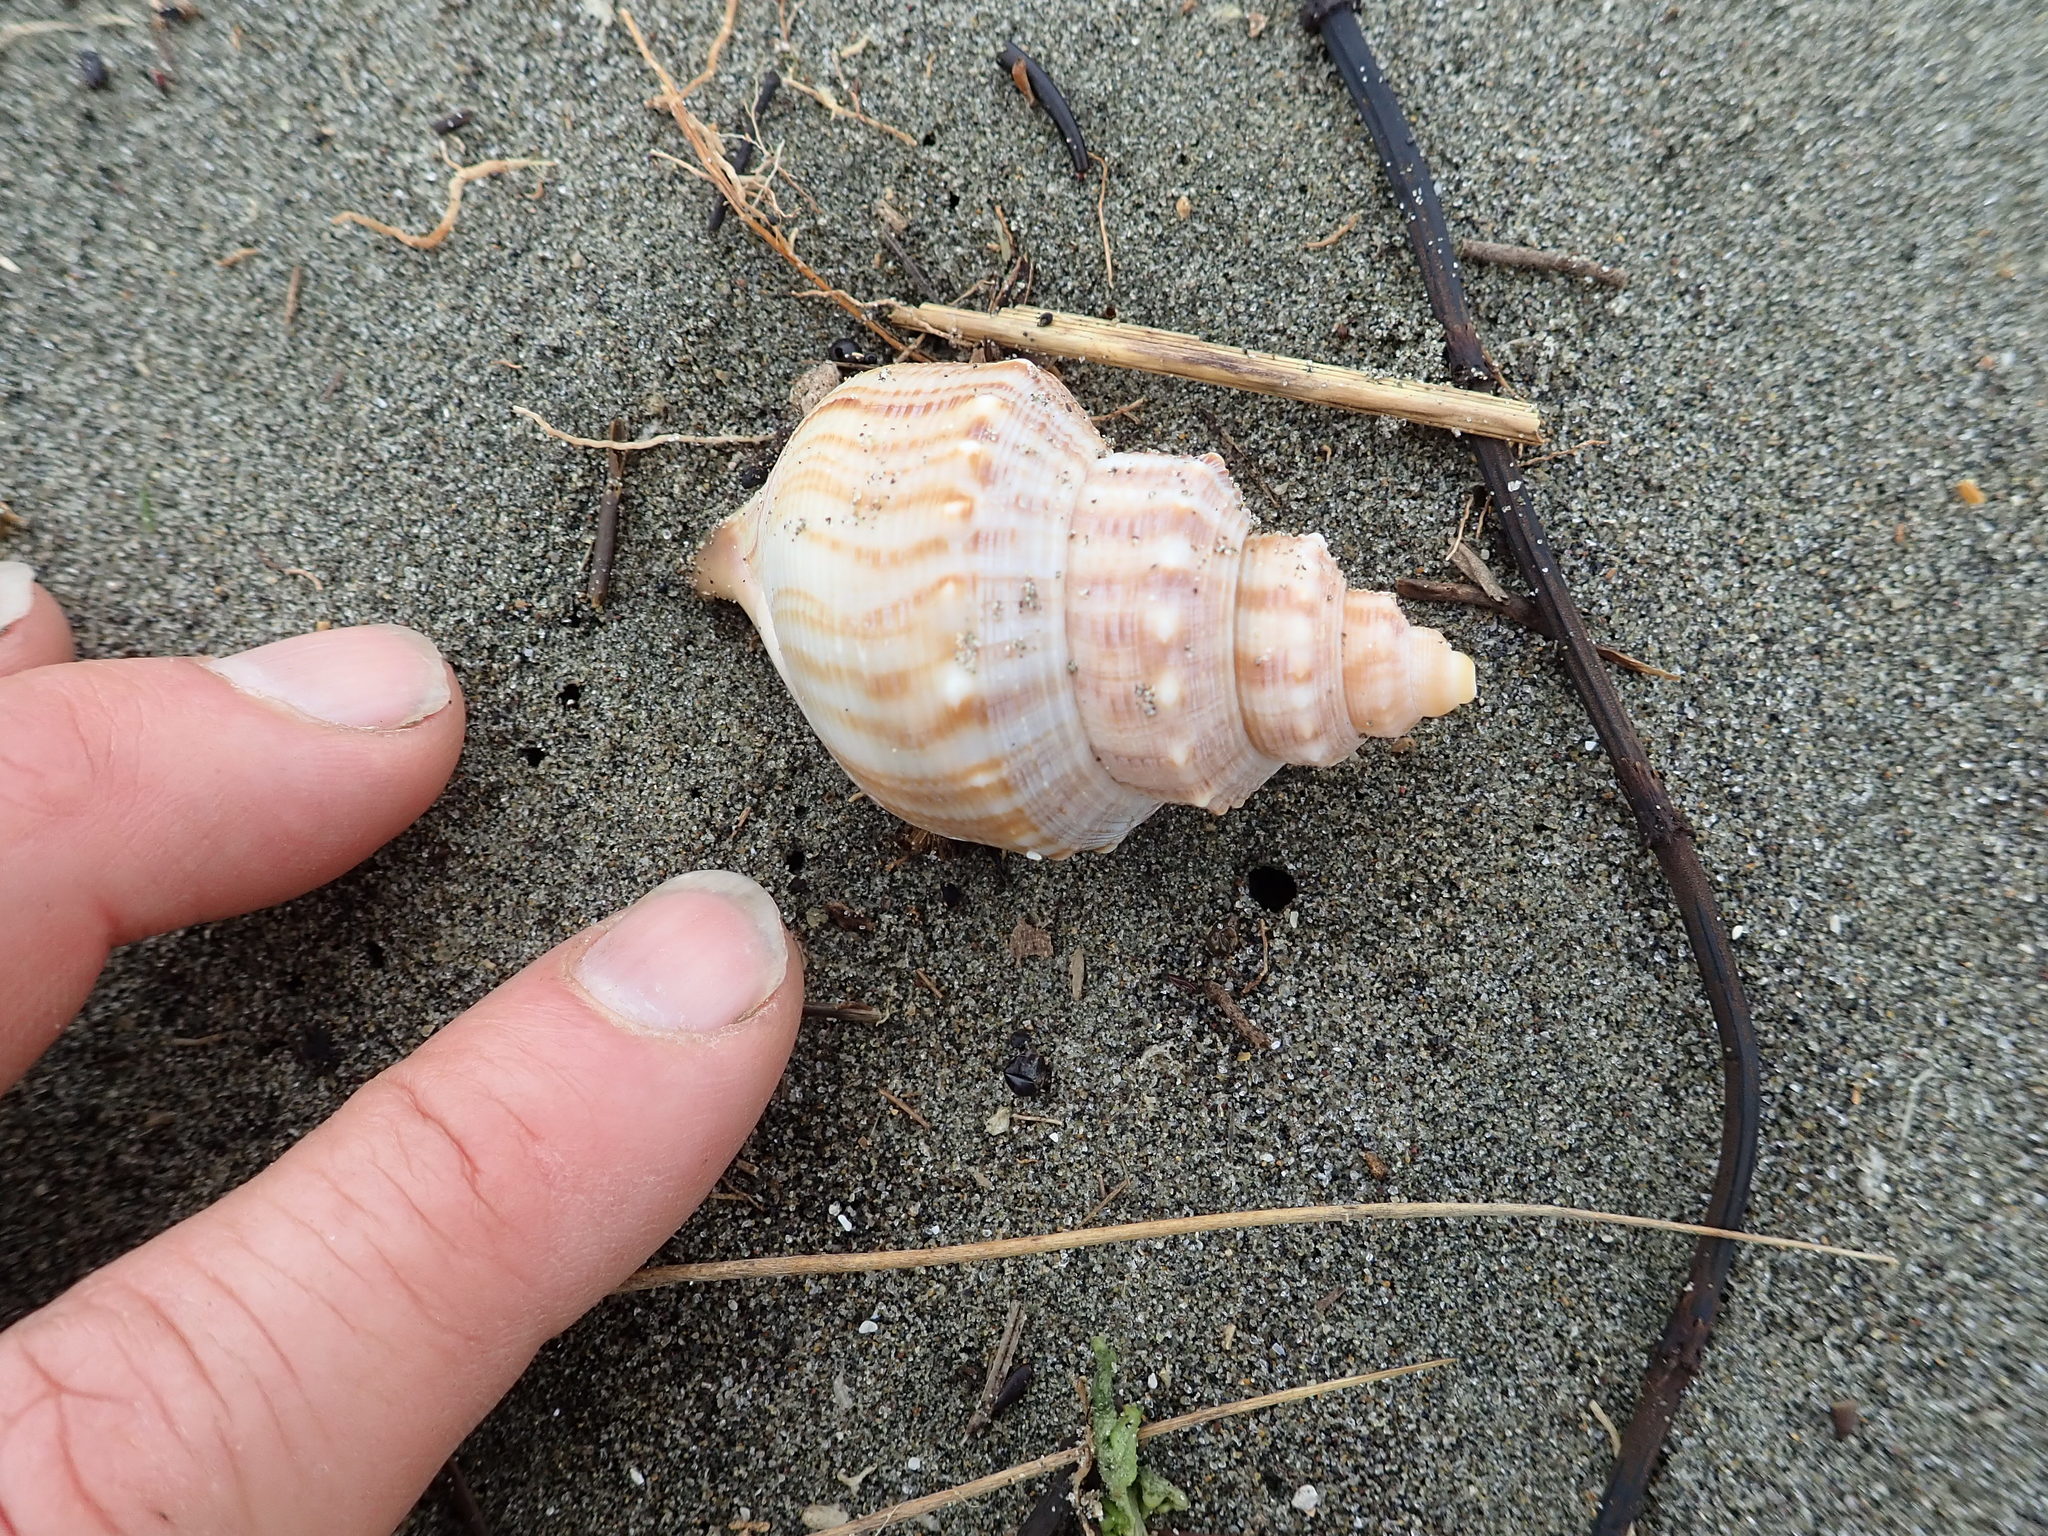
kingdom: Animalia
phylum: Mollusca
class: Gastropoda
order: Littorinimorpha
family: Struthiolariidae
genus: Struthiolaria
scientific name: Struthiolaria papulosa
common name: Large ostrich foot
